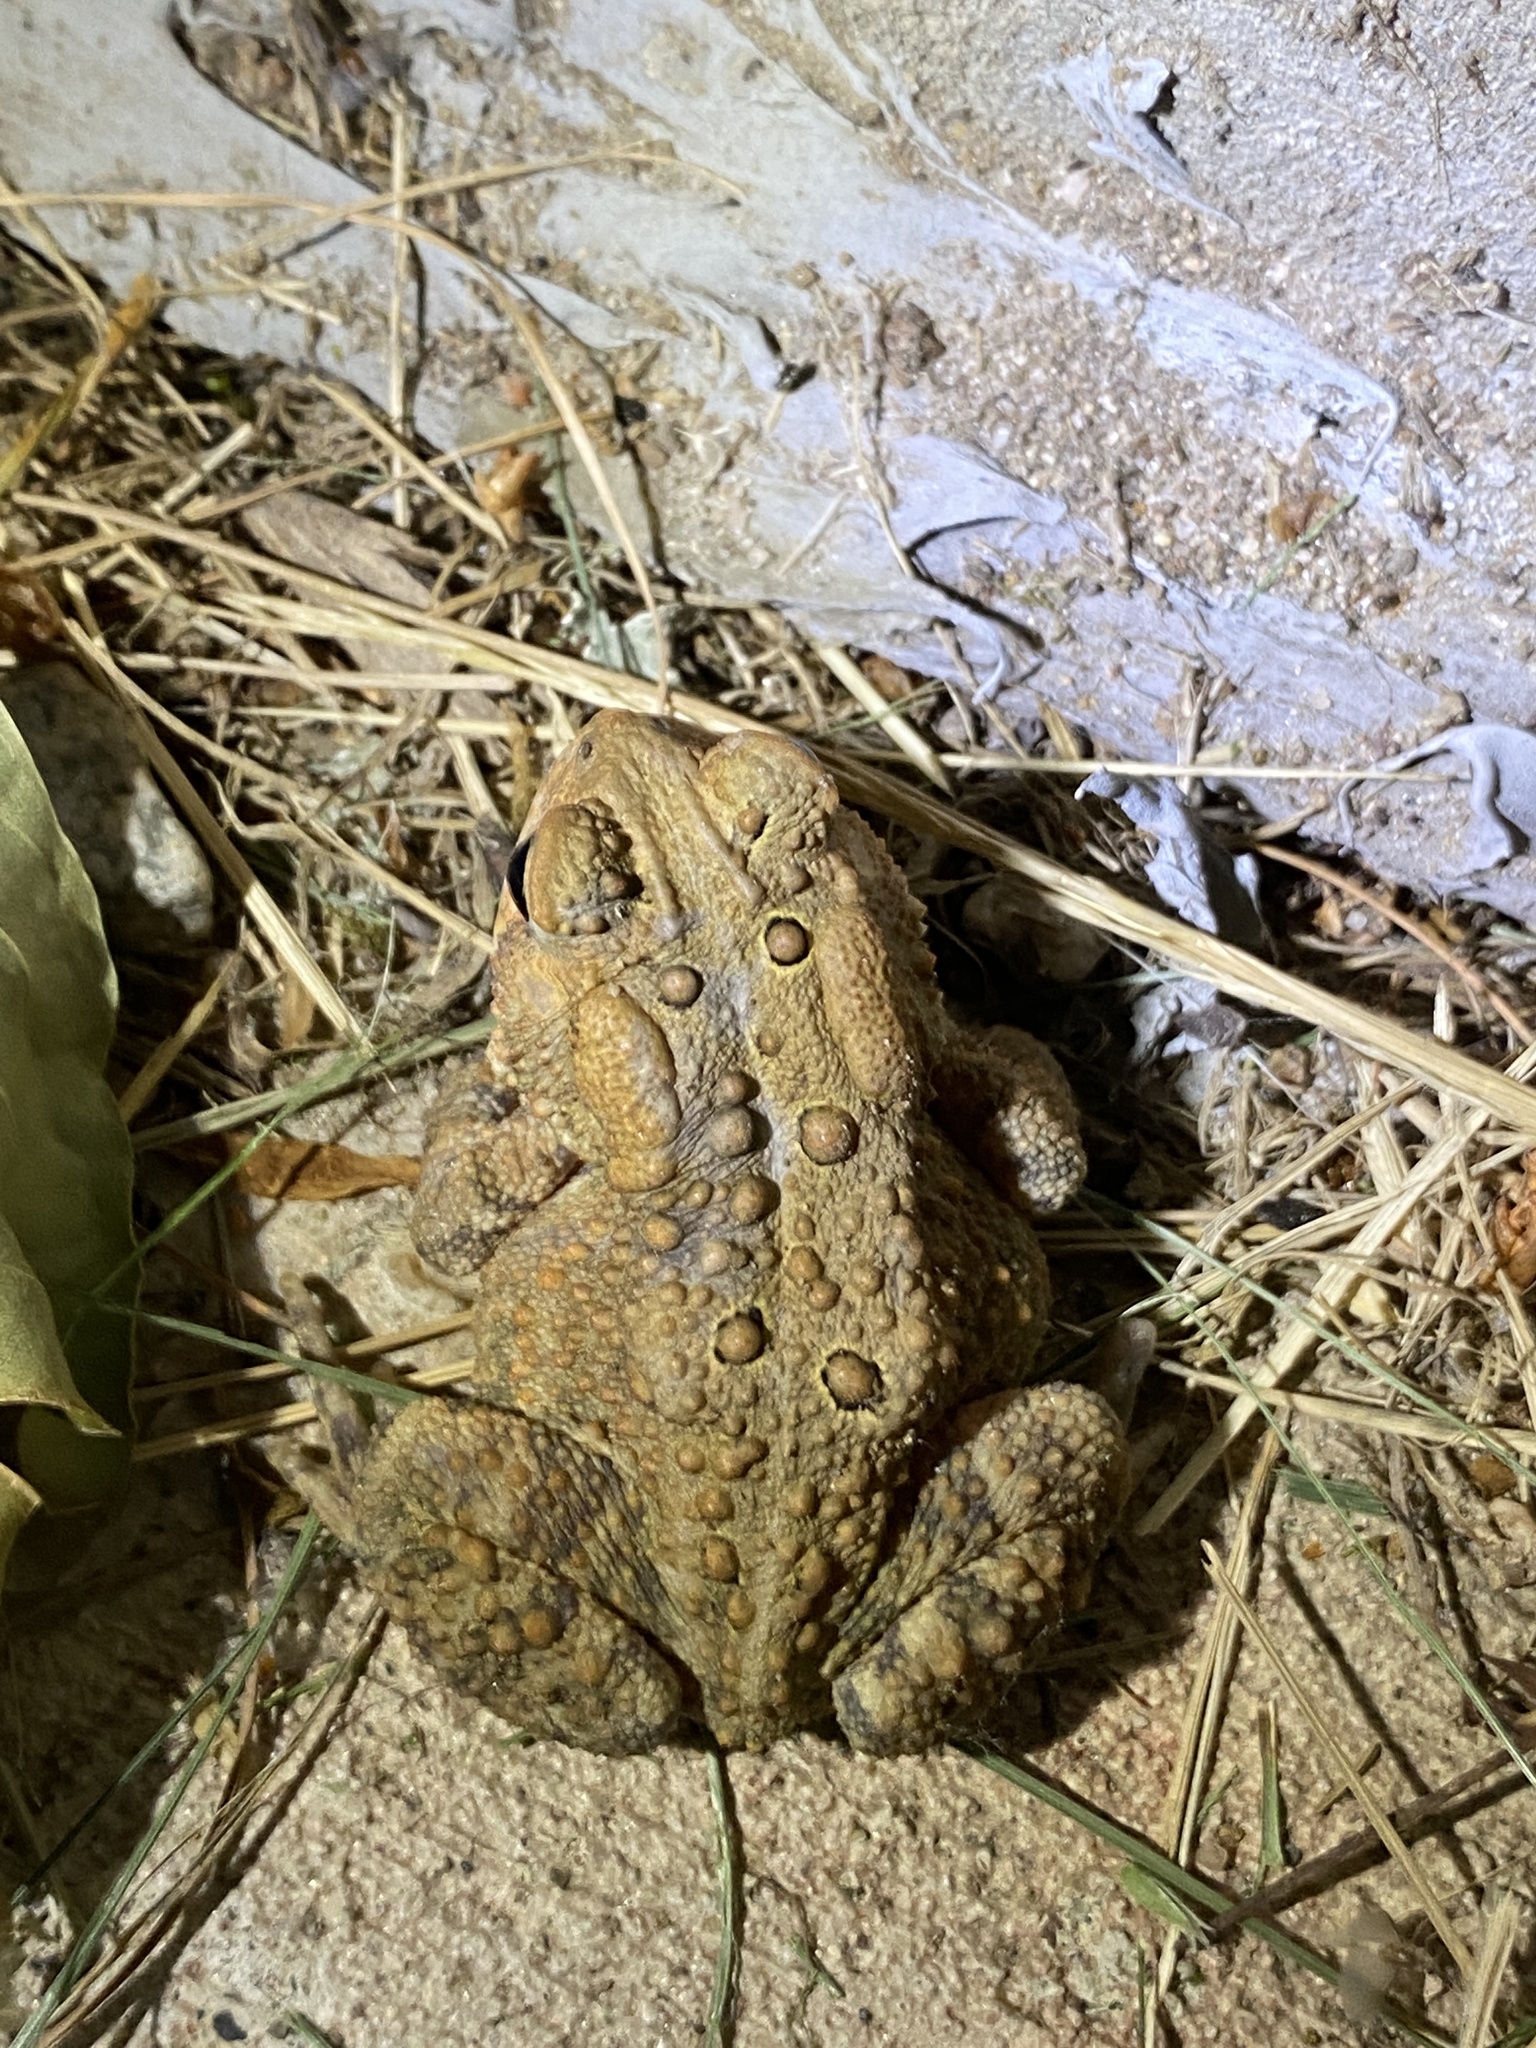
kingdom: Animalia
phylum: Chordata
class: Amphibia
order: Anura
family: Bufonidae
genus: Anaxyrus
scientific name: Anaxyrus americanus
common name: American toad
